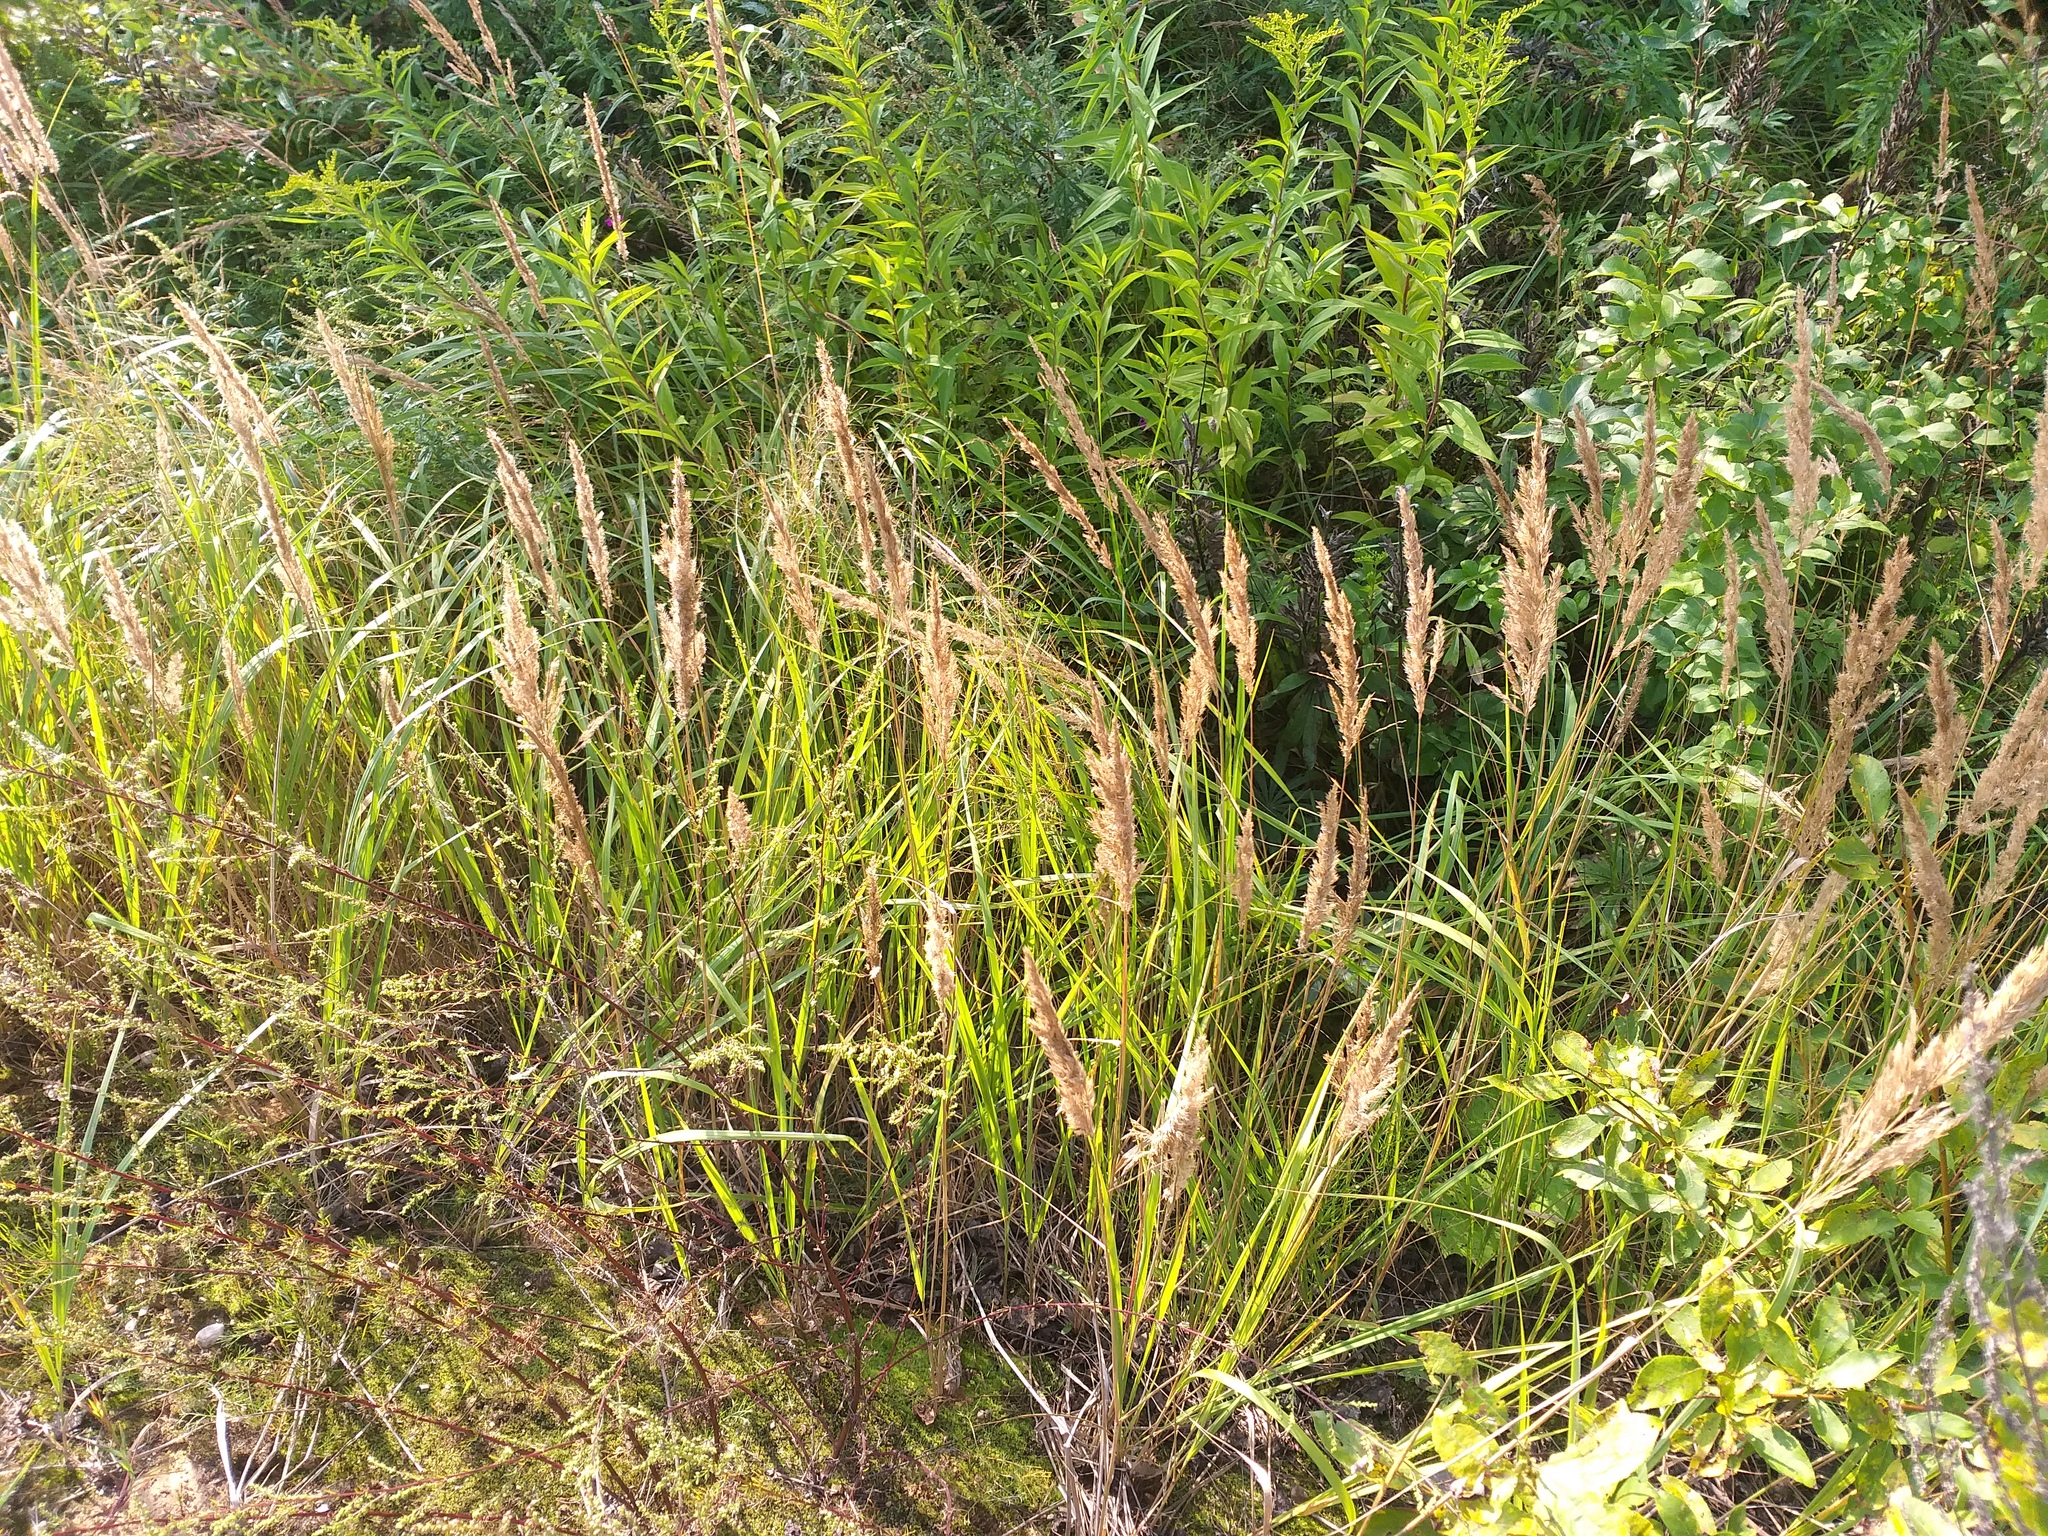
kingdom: Plantae
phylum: Tracheophyta
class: Liliopsida
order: Poales
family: Poaceae
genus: Calamagrostis
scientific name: Calamagrostis epigejos
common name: Wood small-reed
